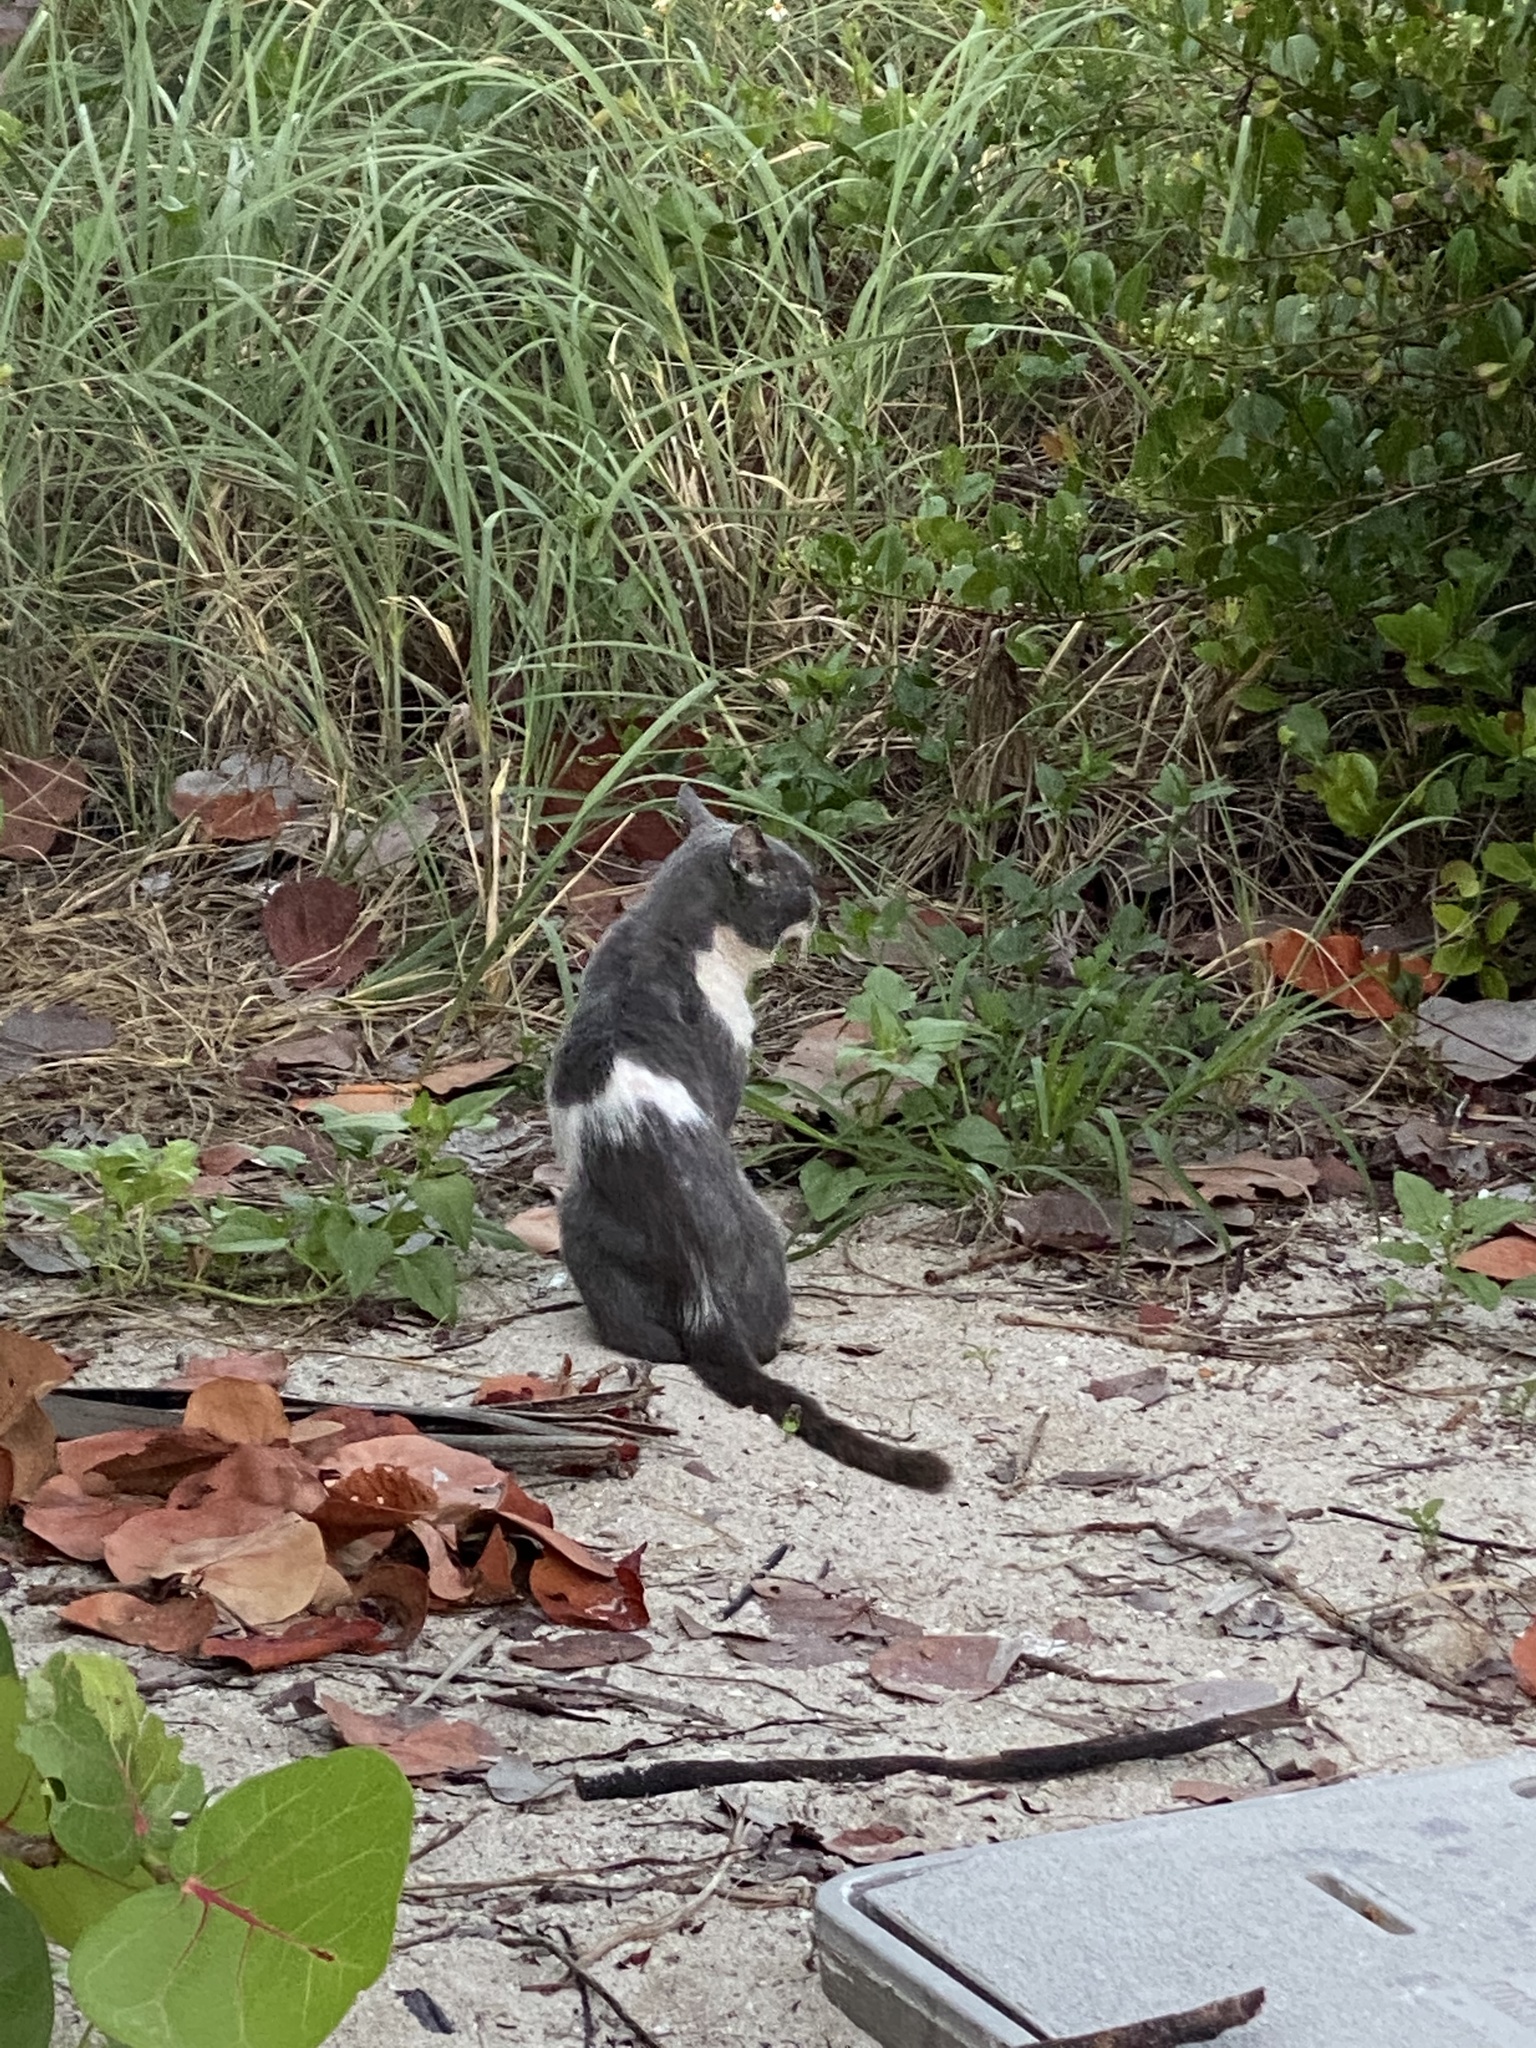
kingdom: Animalia
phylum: Chordata
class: Mammalia
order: Carnivora
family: Felidae
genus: Felis
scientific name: Felis catus
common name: Domestic cat
